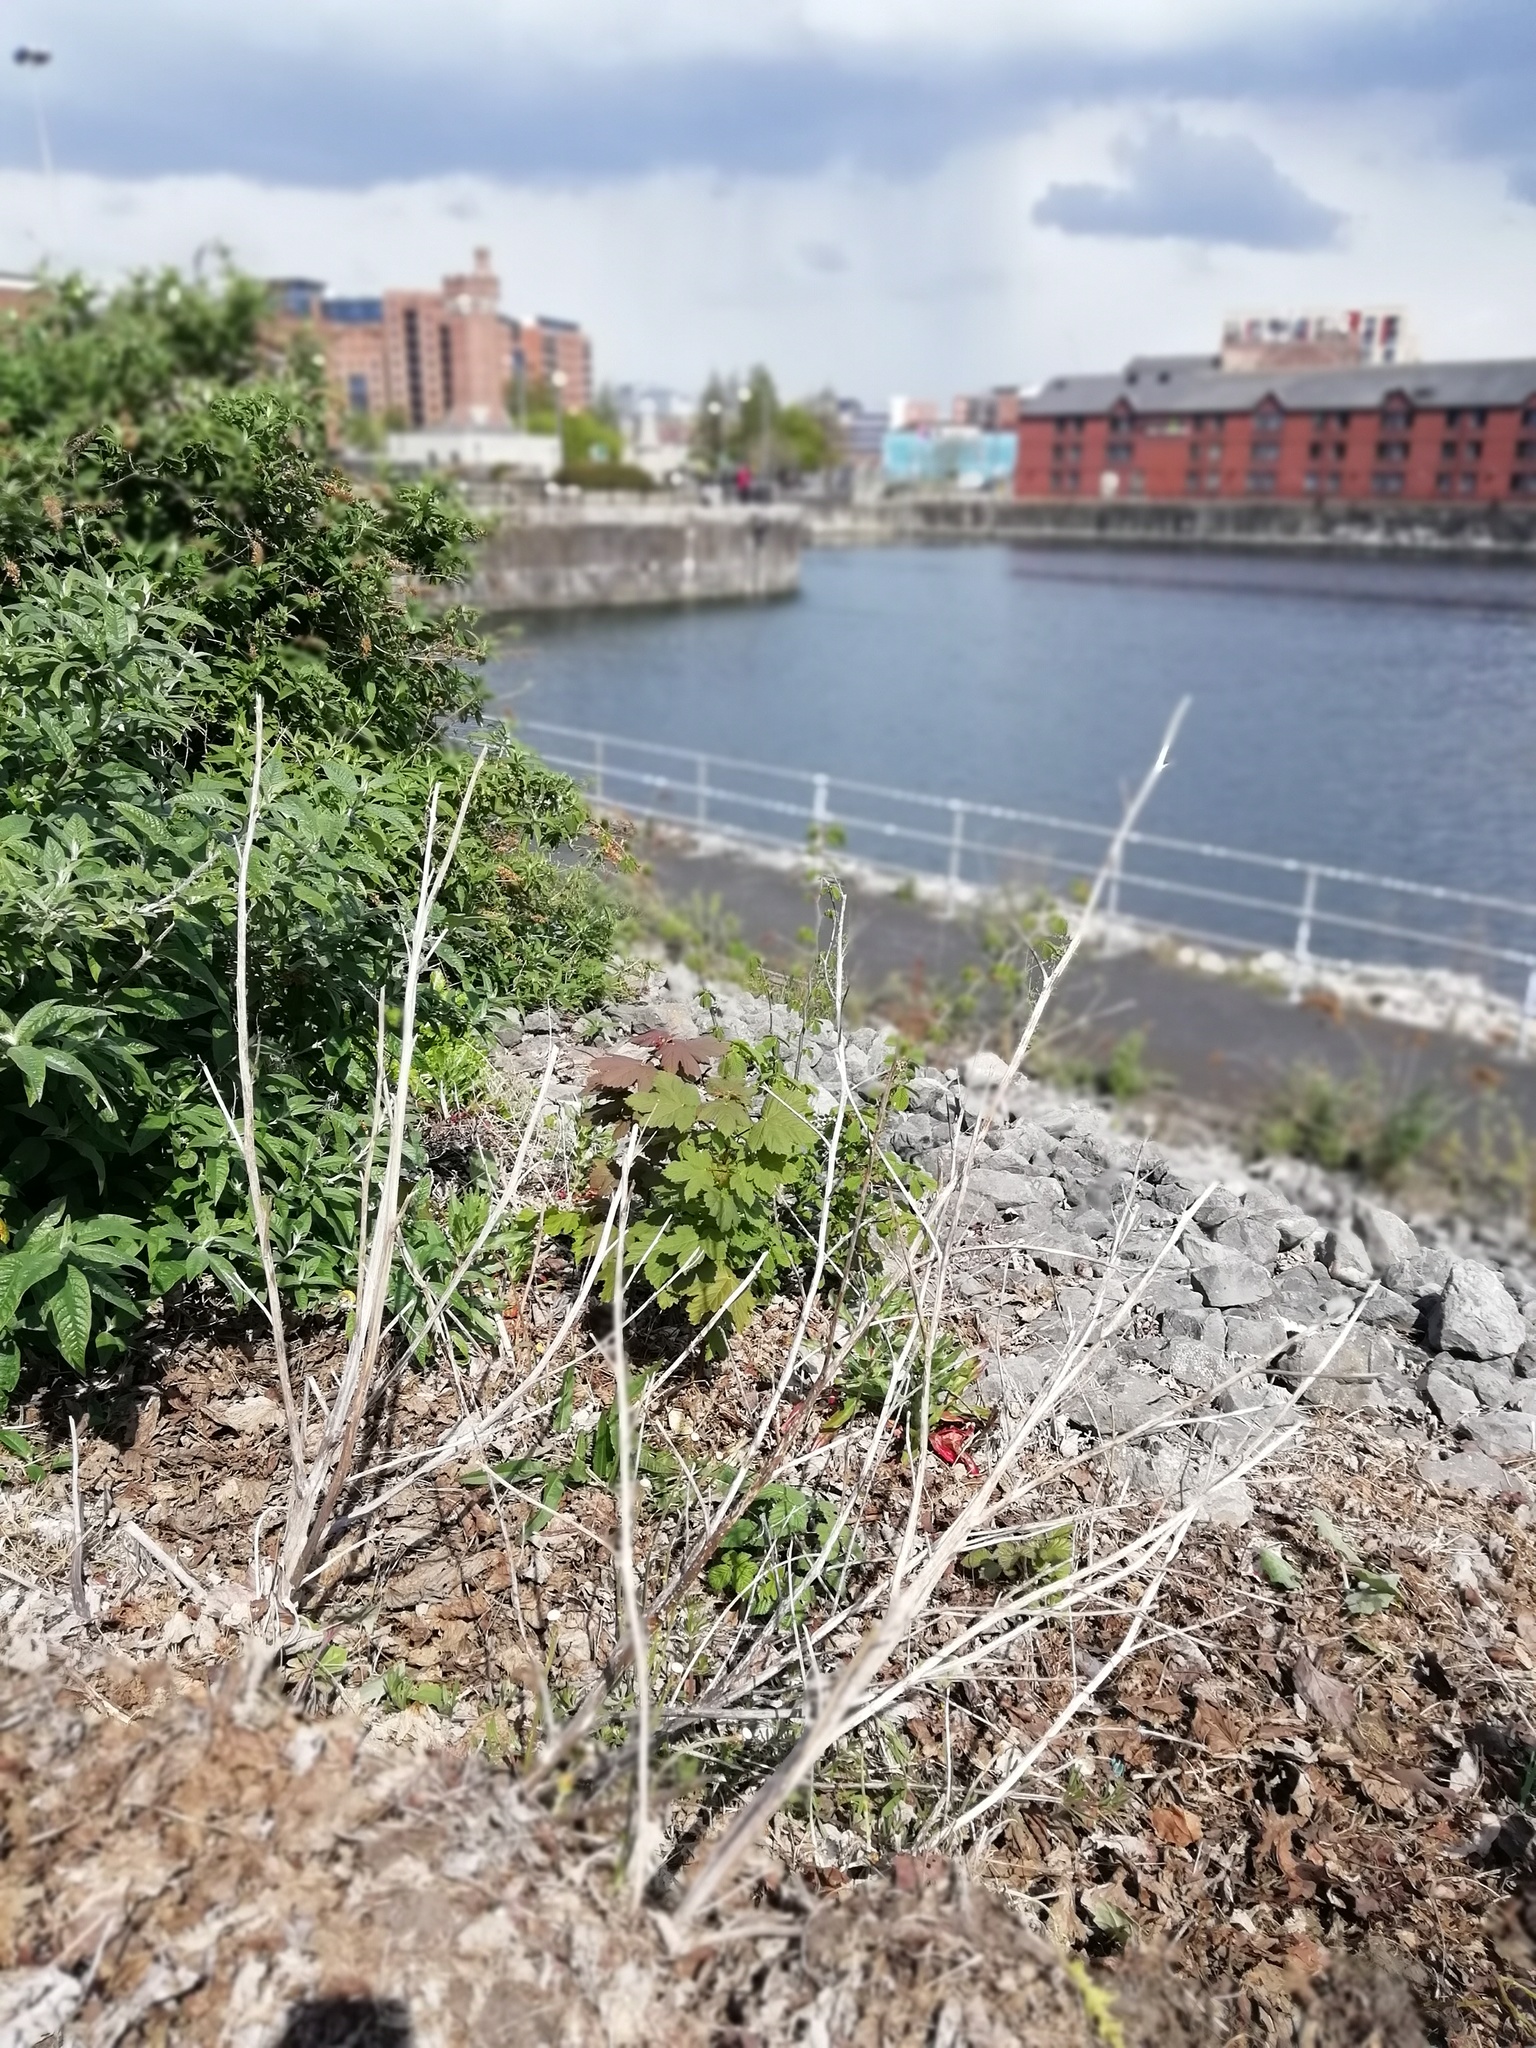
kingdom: Plantae
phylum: Tracheophyta
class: Magnoliopsida
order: Sapindales
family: Sapindaceae
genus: Acer
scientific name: Acer pseudoplatanus
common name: Sycamore
